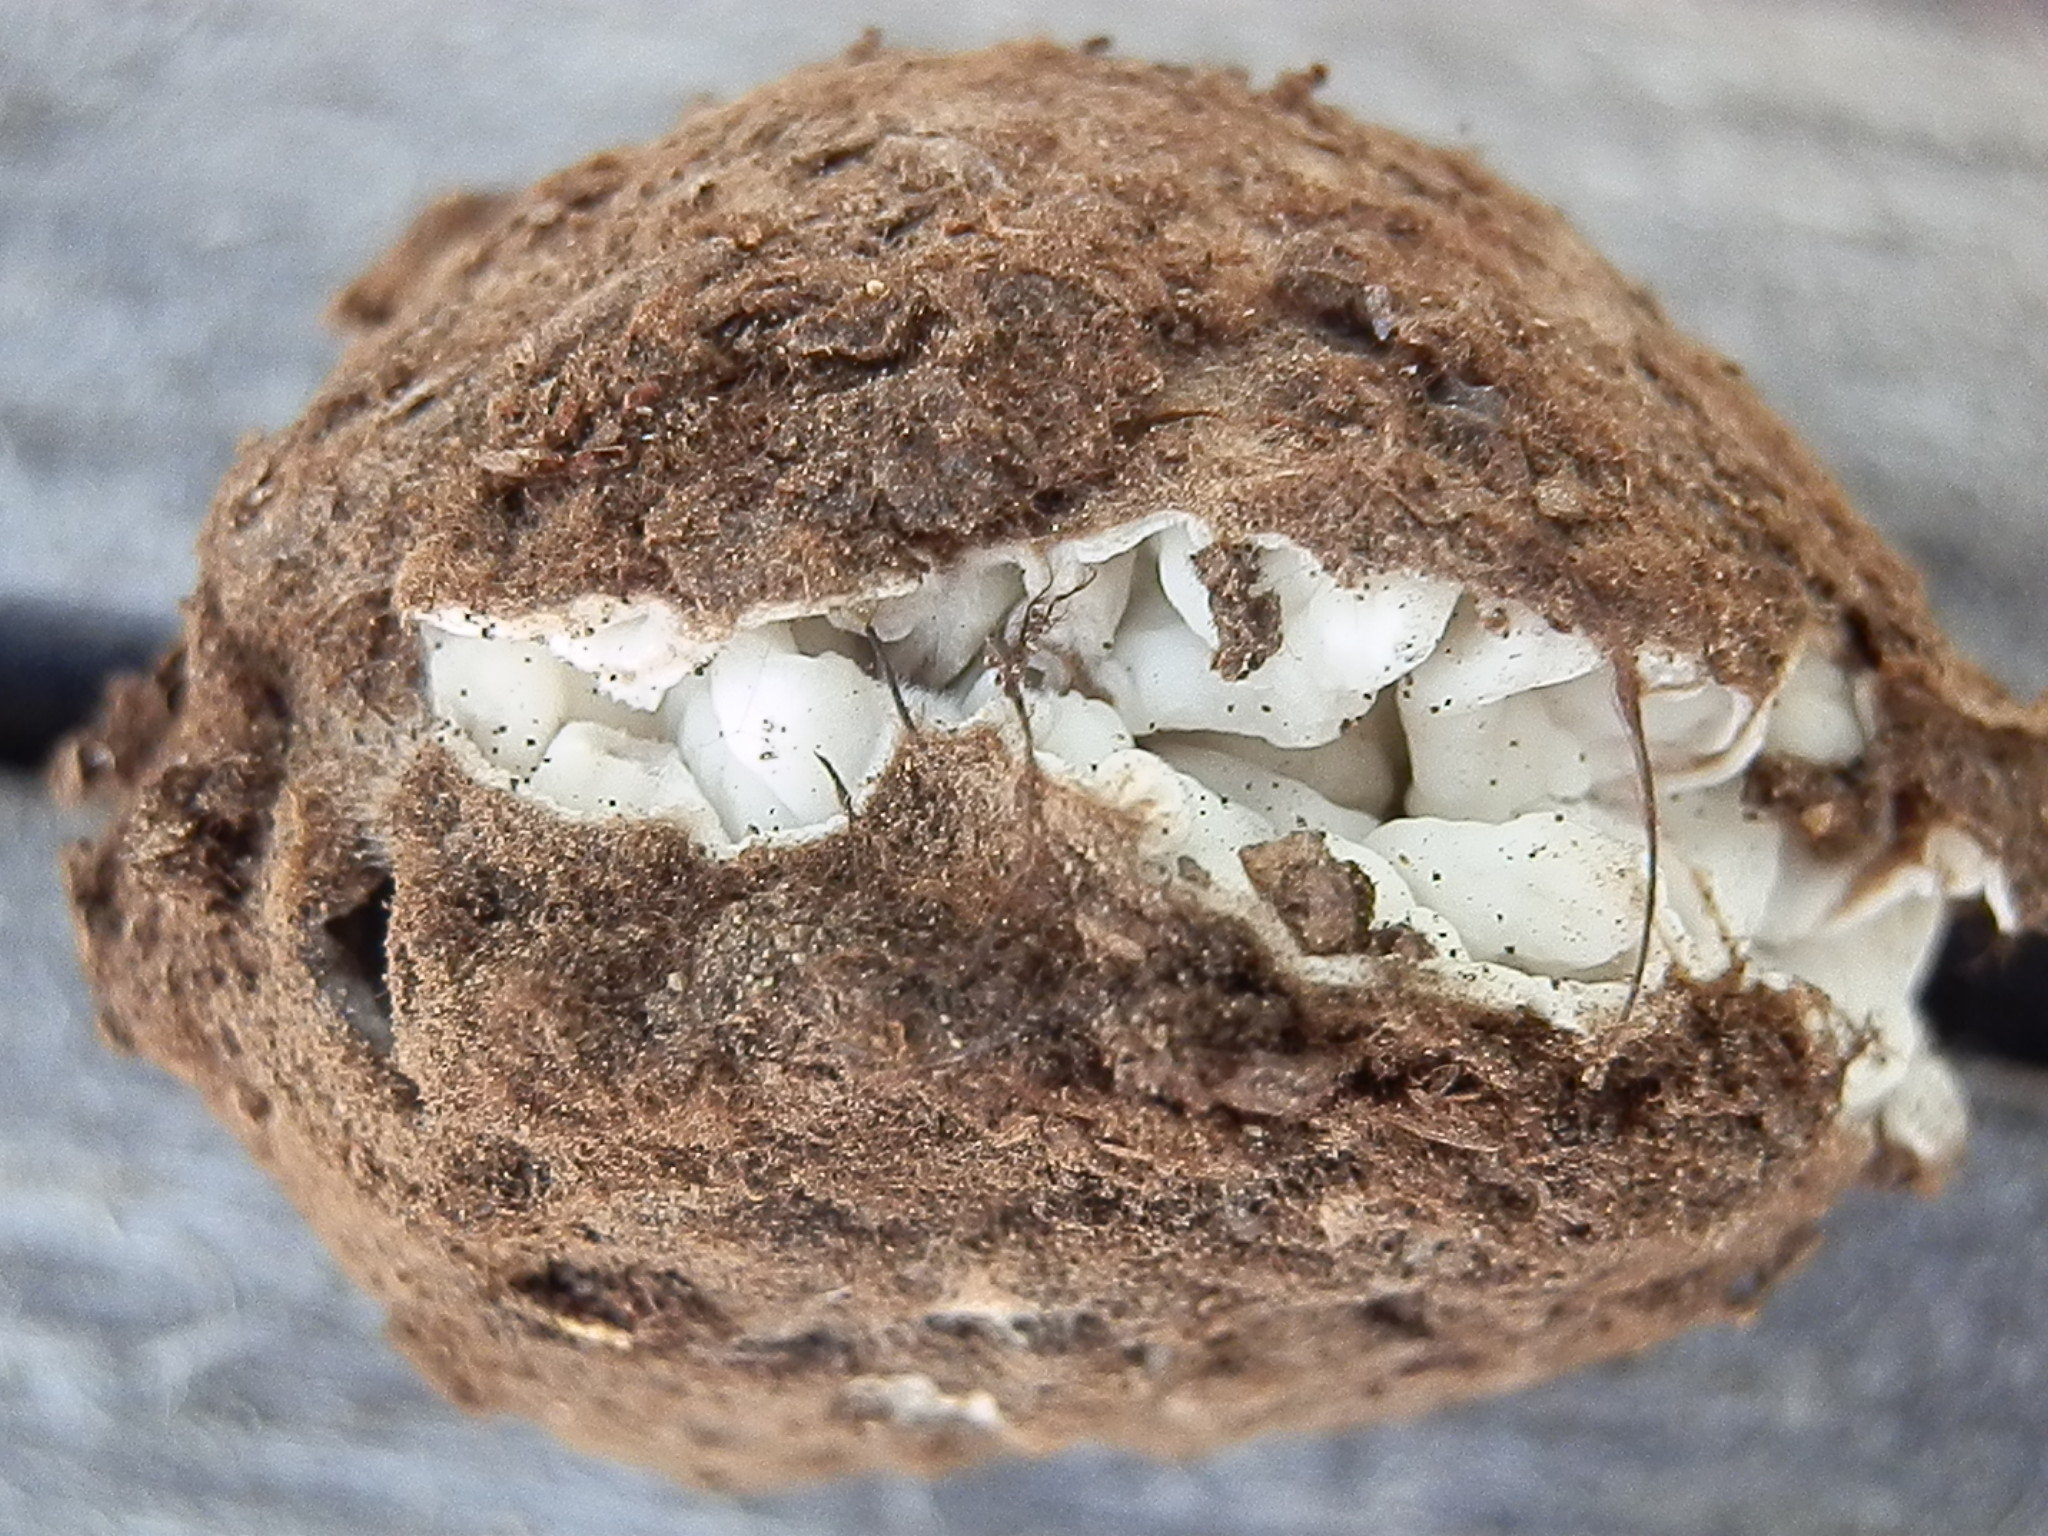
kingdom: Fungi
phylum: Ascomycota
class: Pezizomycetes
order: Pezizales
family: Pyronemataceae
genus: Geopora
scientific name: Geopora cooperi
